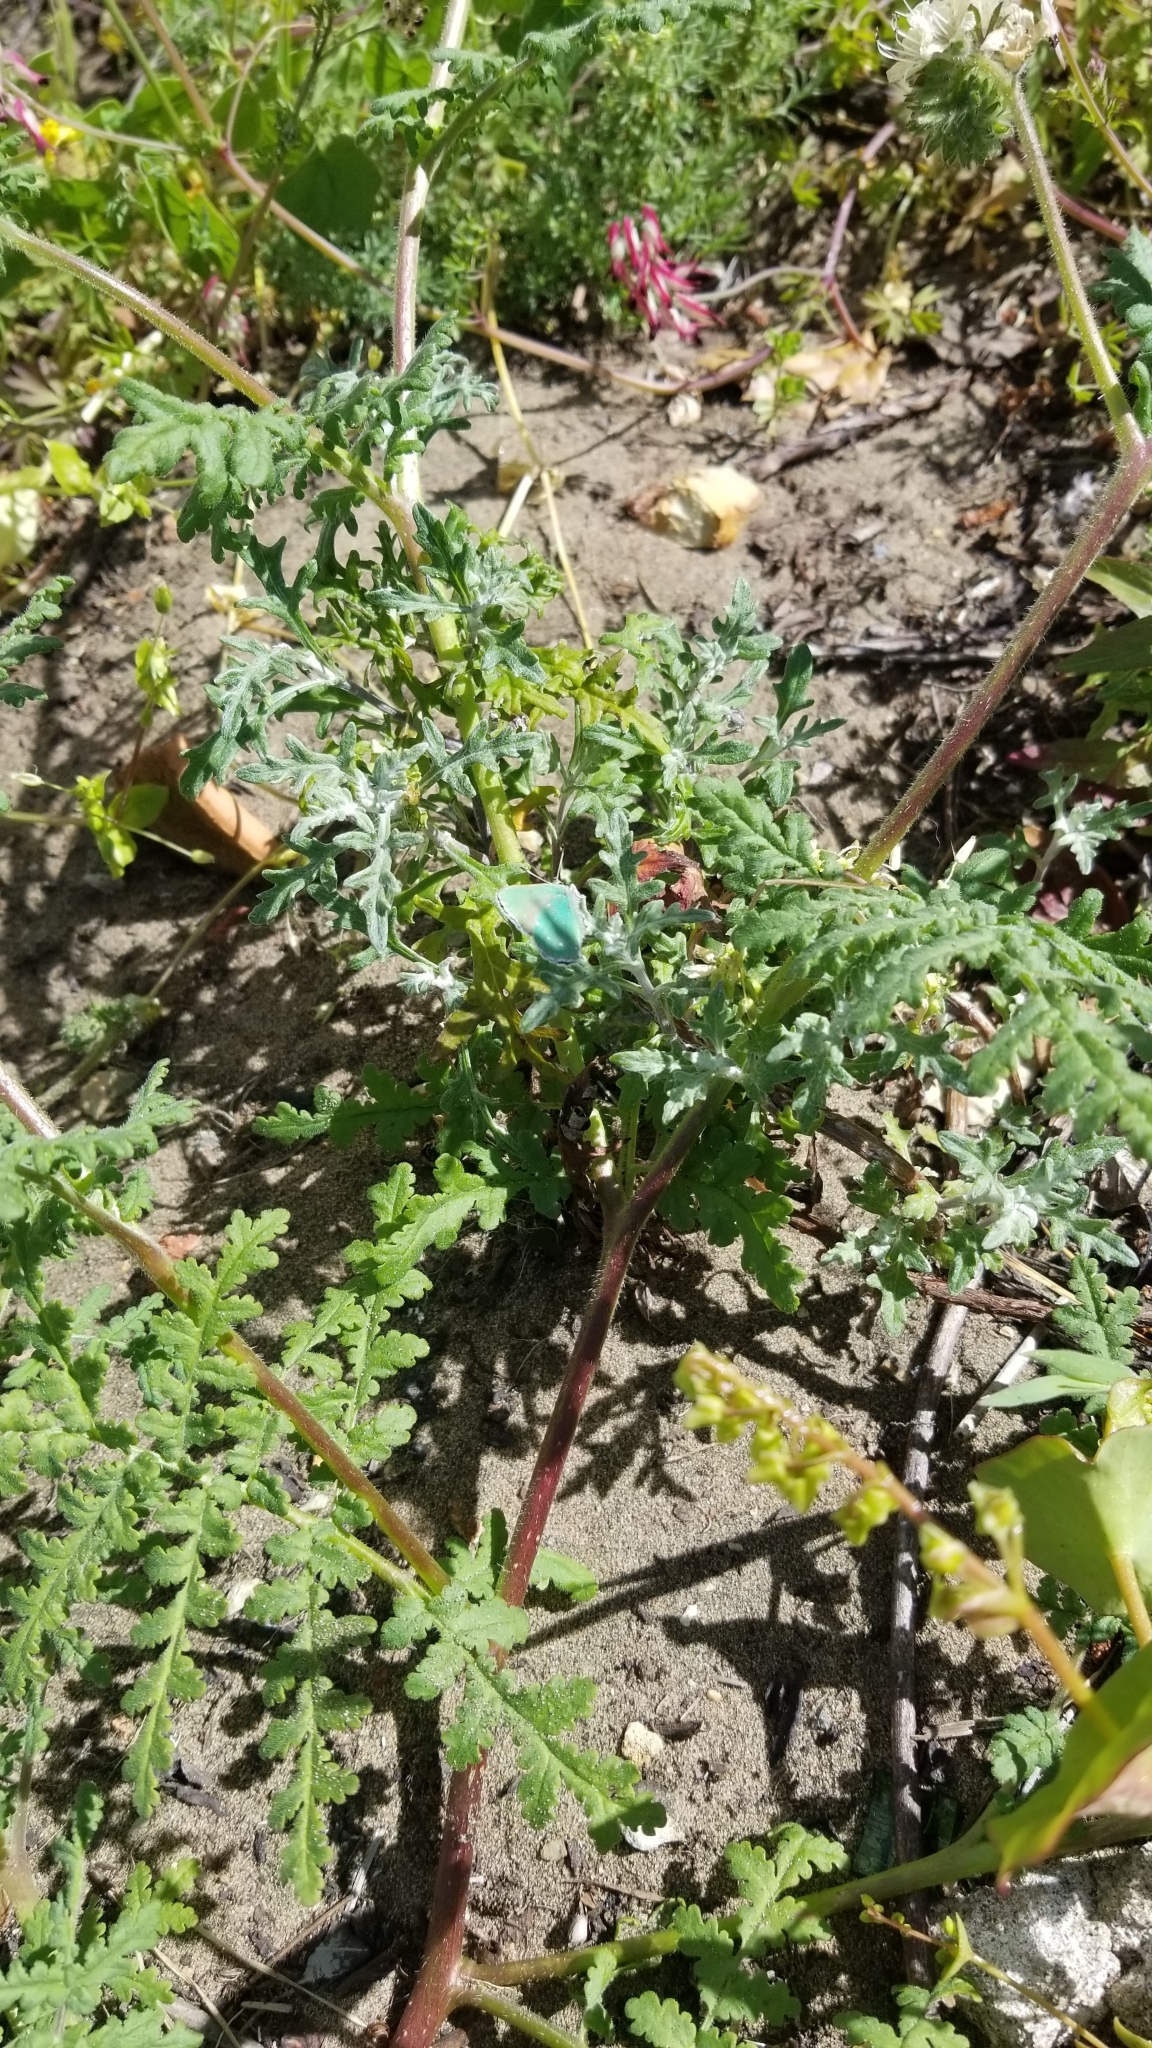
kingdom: Animalia
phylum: Arthropoda
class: Insecta
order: Lepidoptera
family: Lycaenidae
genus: Callophrys
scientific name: Callophrys viridis
